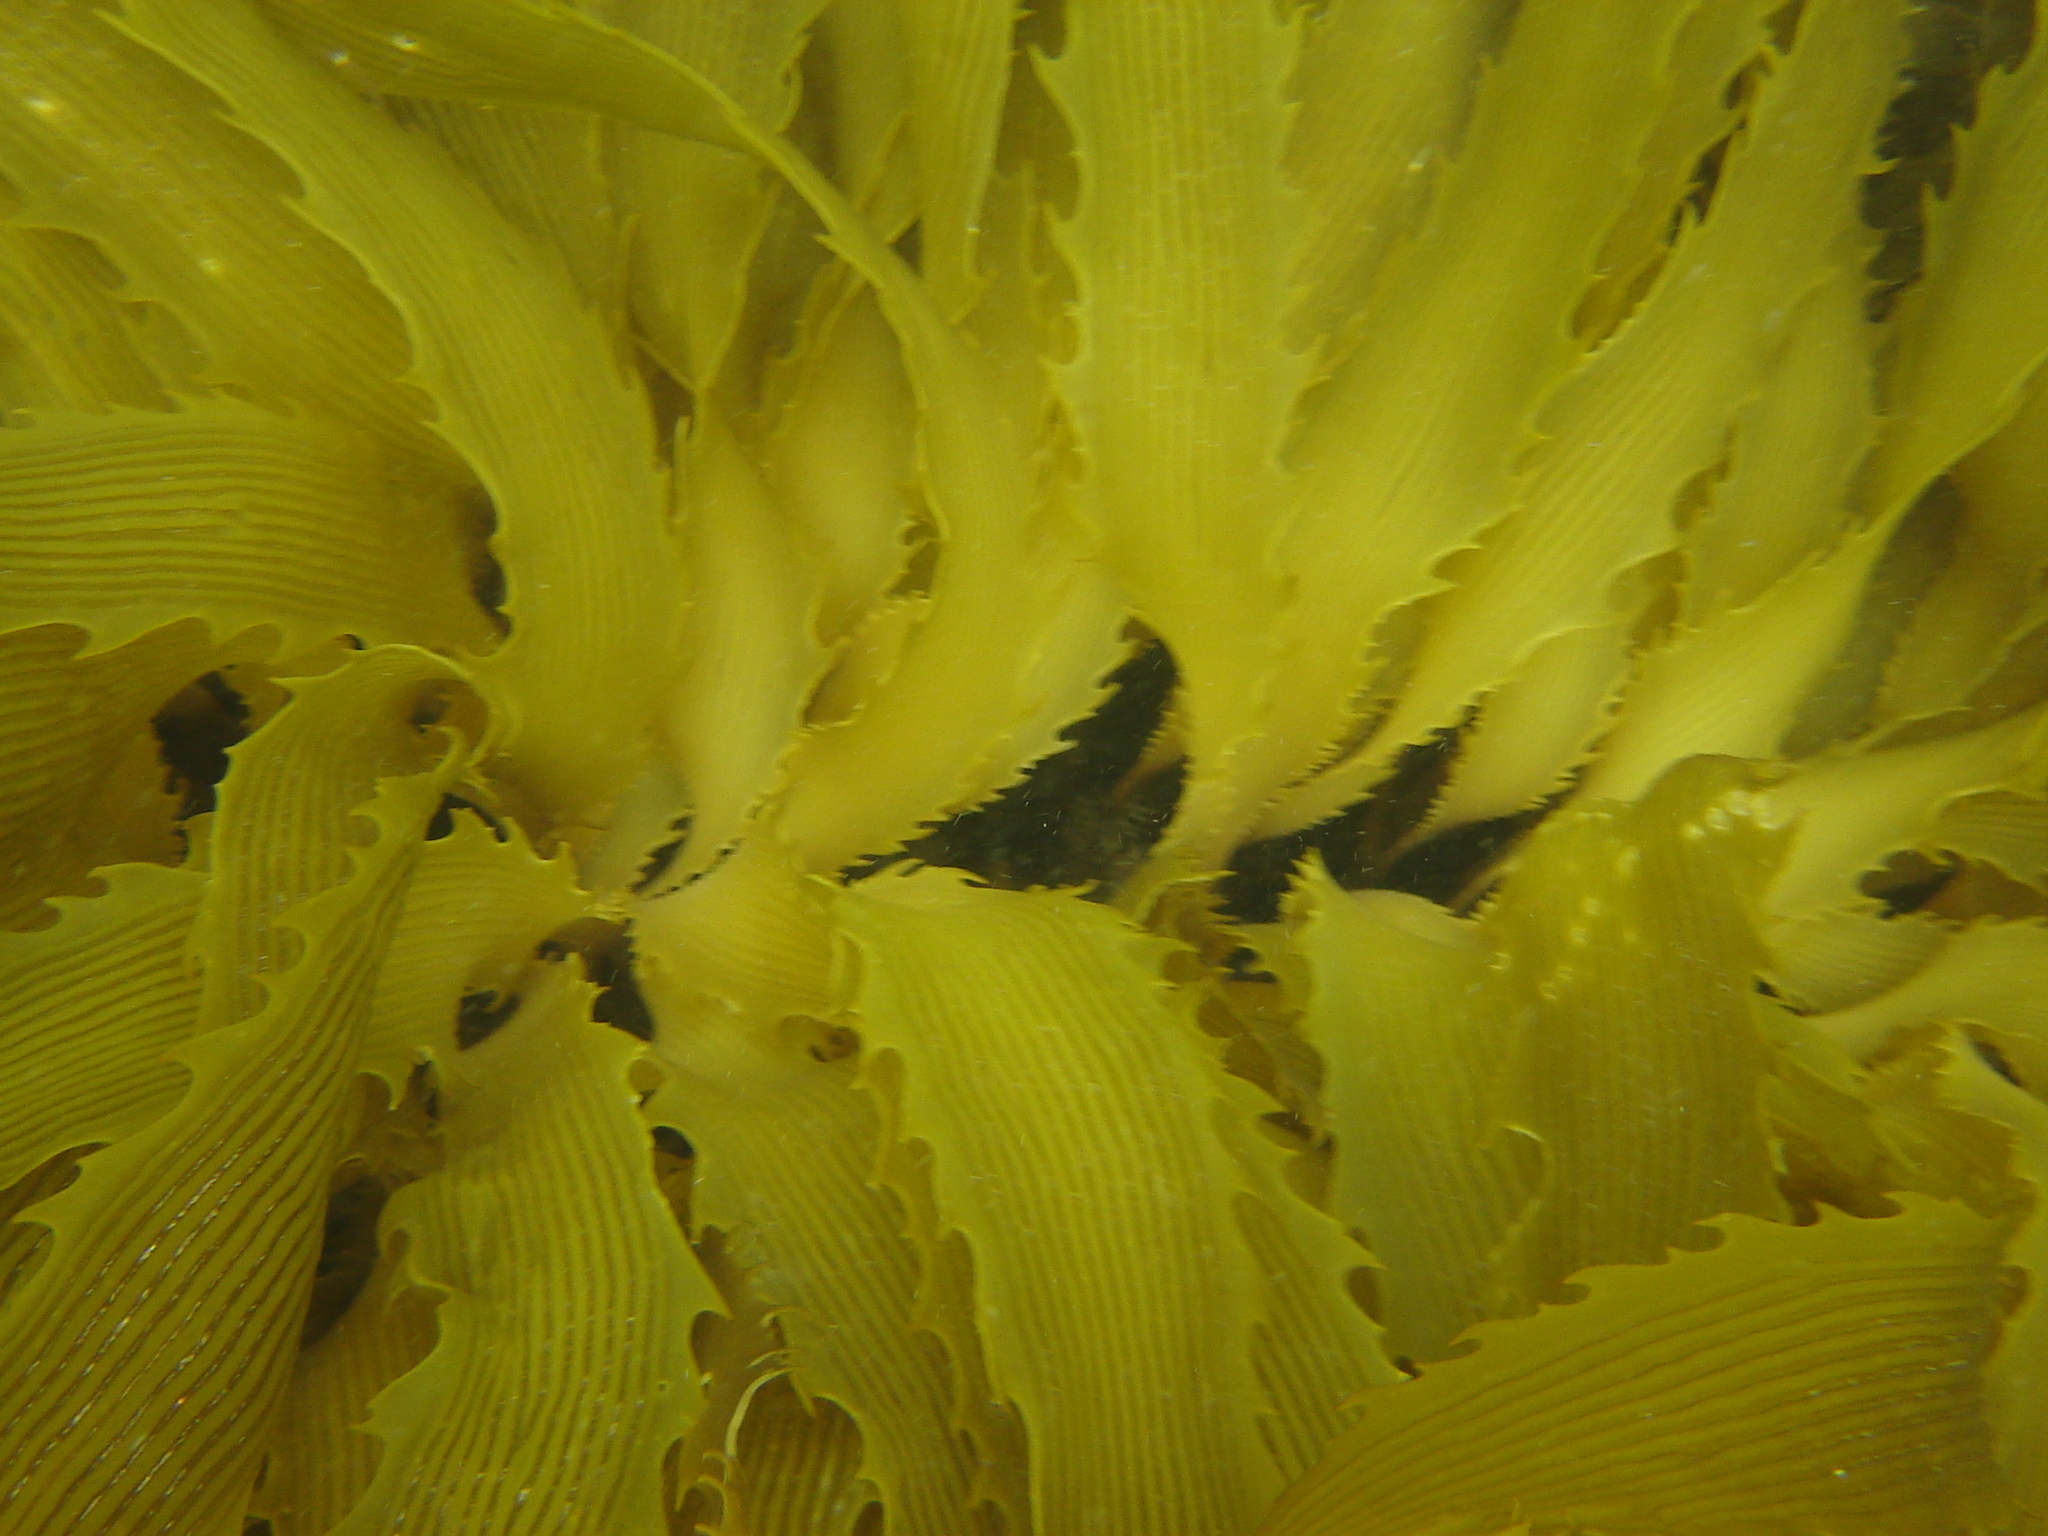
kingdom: Chromista
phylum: Ochrophyta
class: Phaeophyceae
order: Laminariales
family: Lessoniaceae
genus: Lessonia
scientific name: Lessonia corrugata
